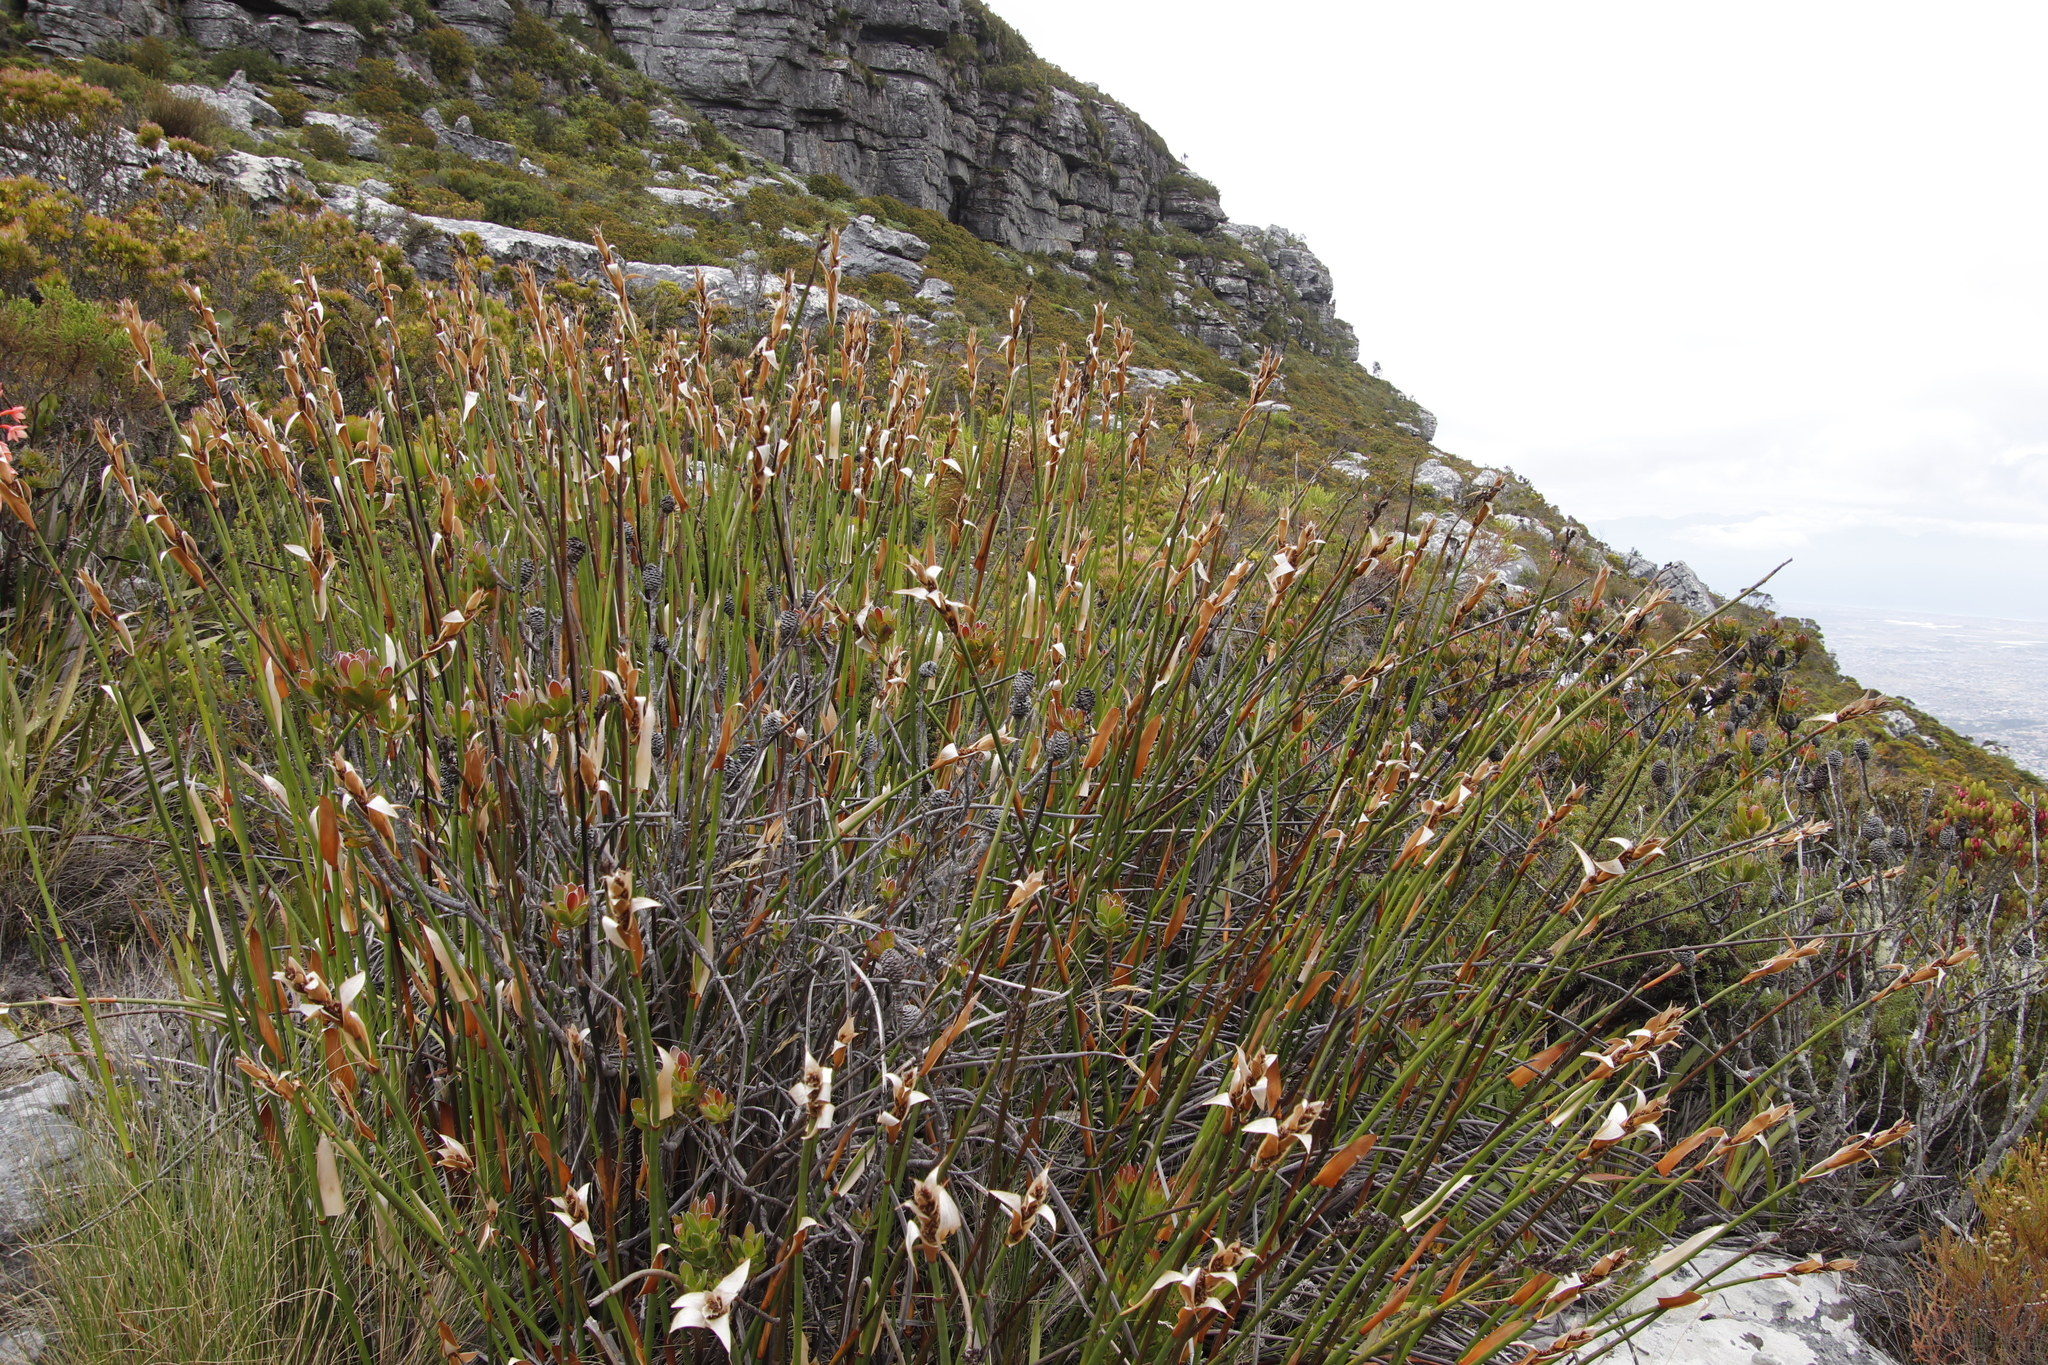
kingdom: Plantae
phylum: Tracheophyta
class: Liliopsida
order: Poales
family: Restionaceae
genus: Elegia
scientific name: Elegia mucronata
